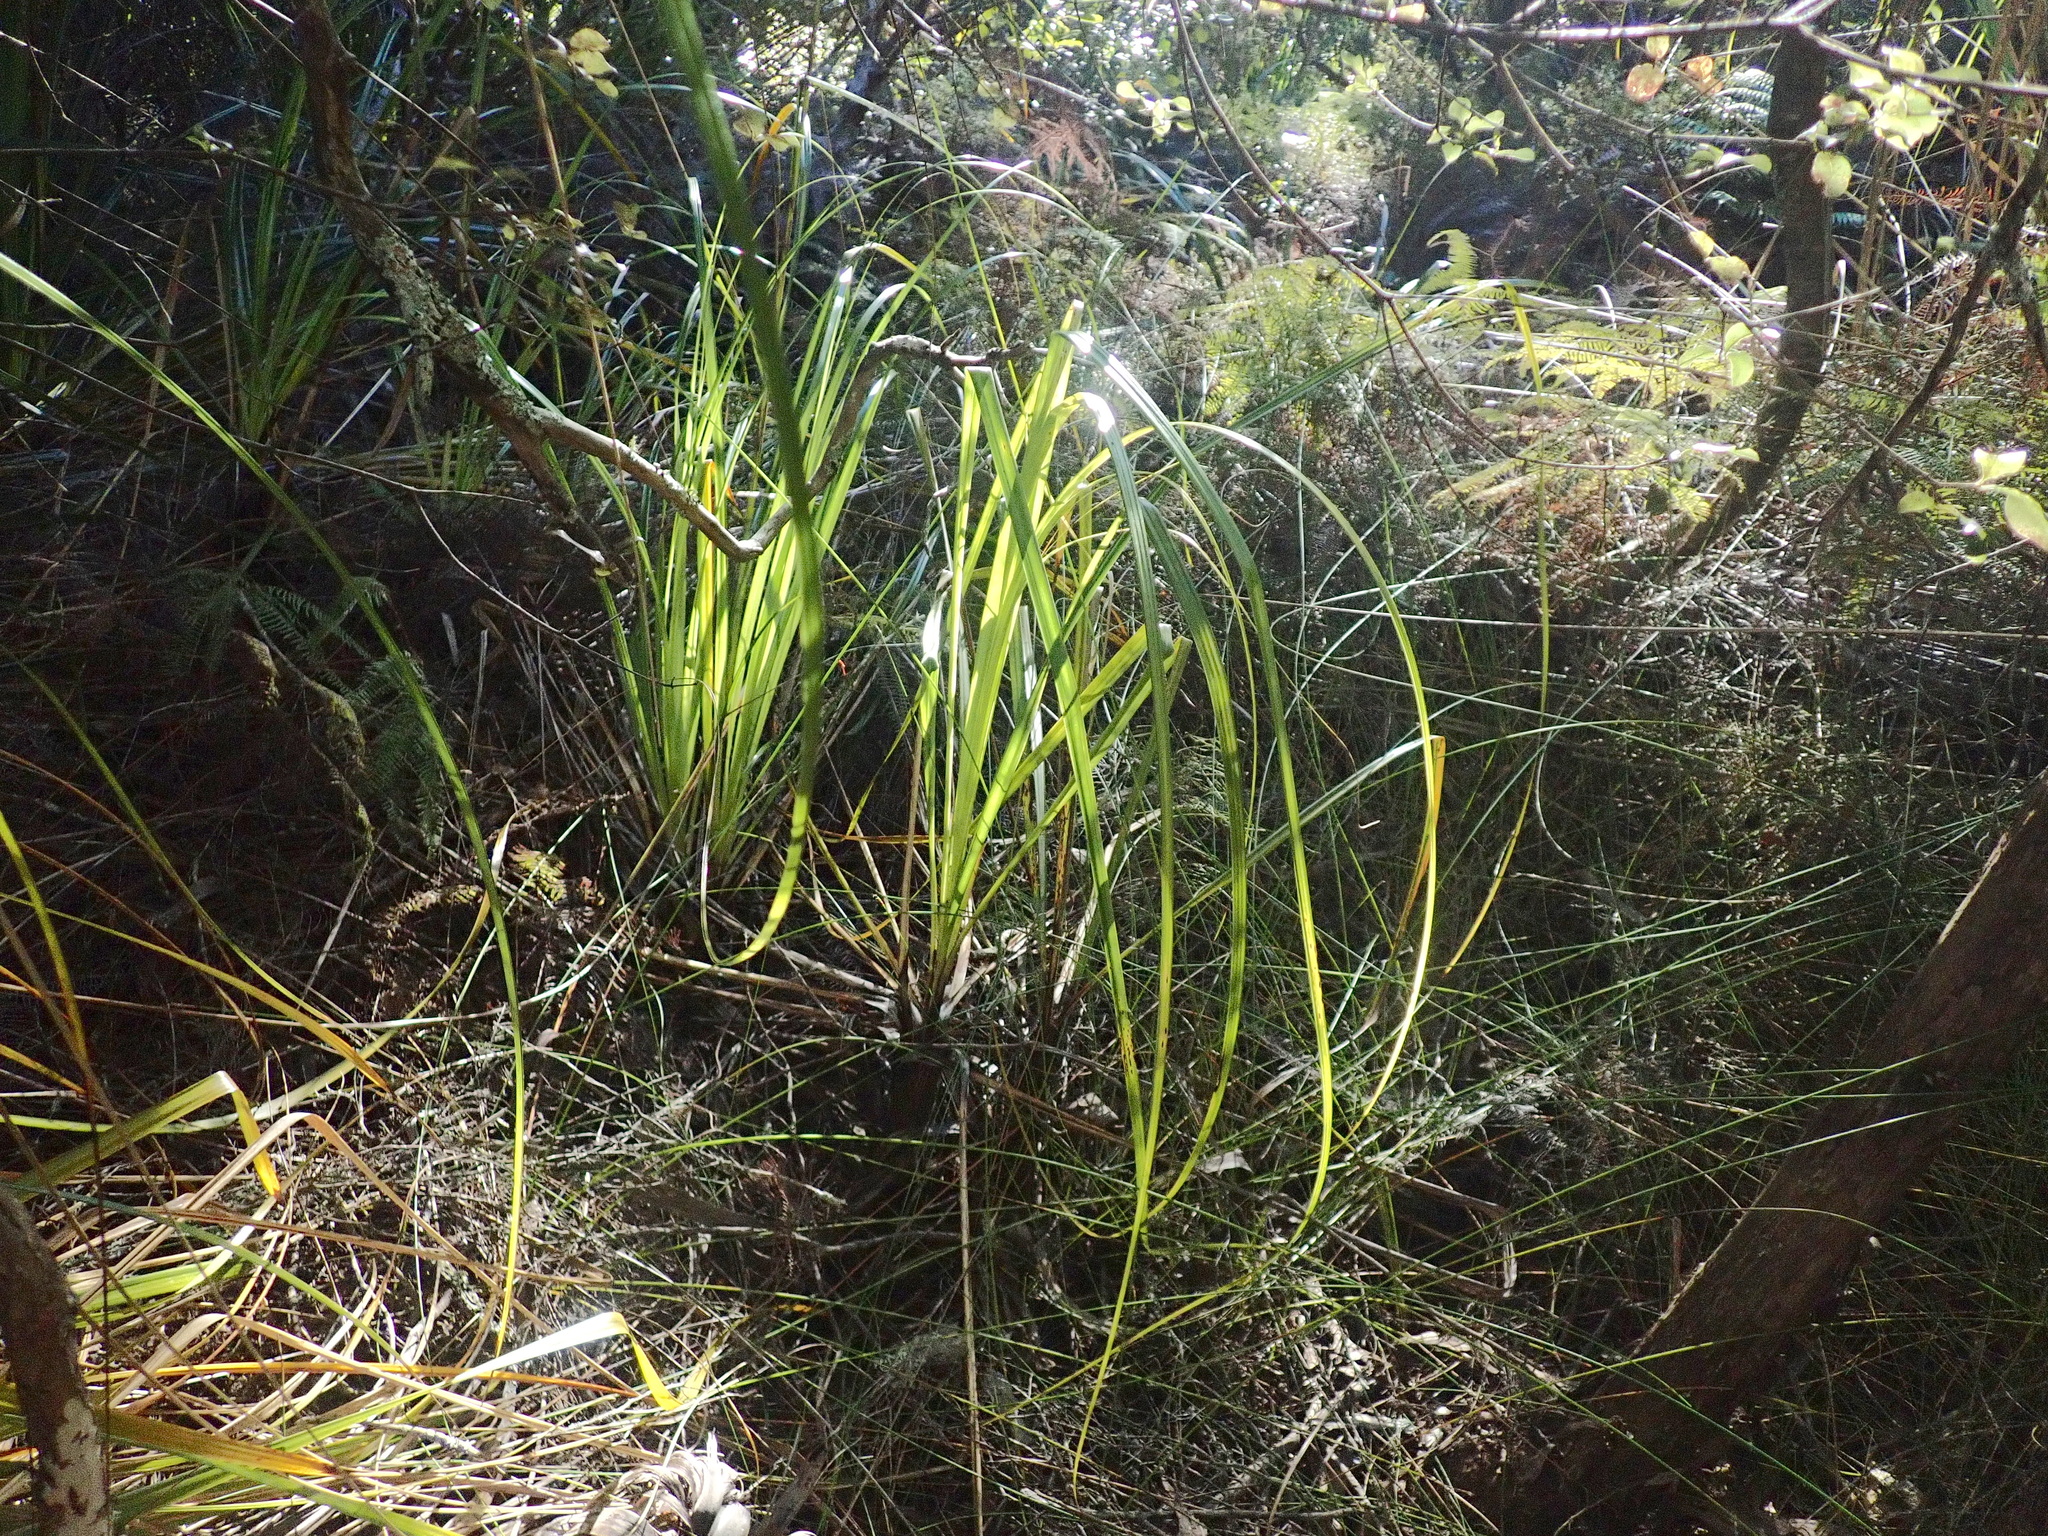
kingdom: Plantae
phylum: Tracheophyta
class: Liliopsida
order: Poales
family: Cyperaceae
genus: Gahnia
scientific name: Gahnia xanthocarpa
